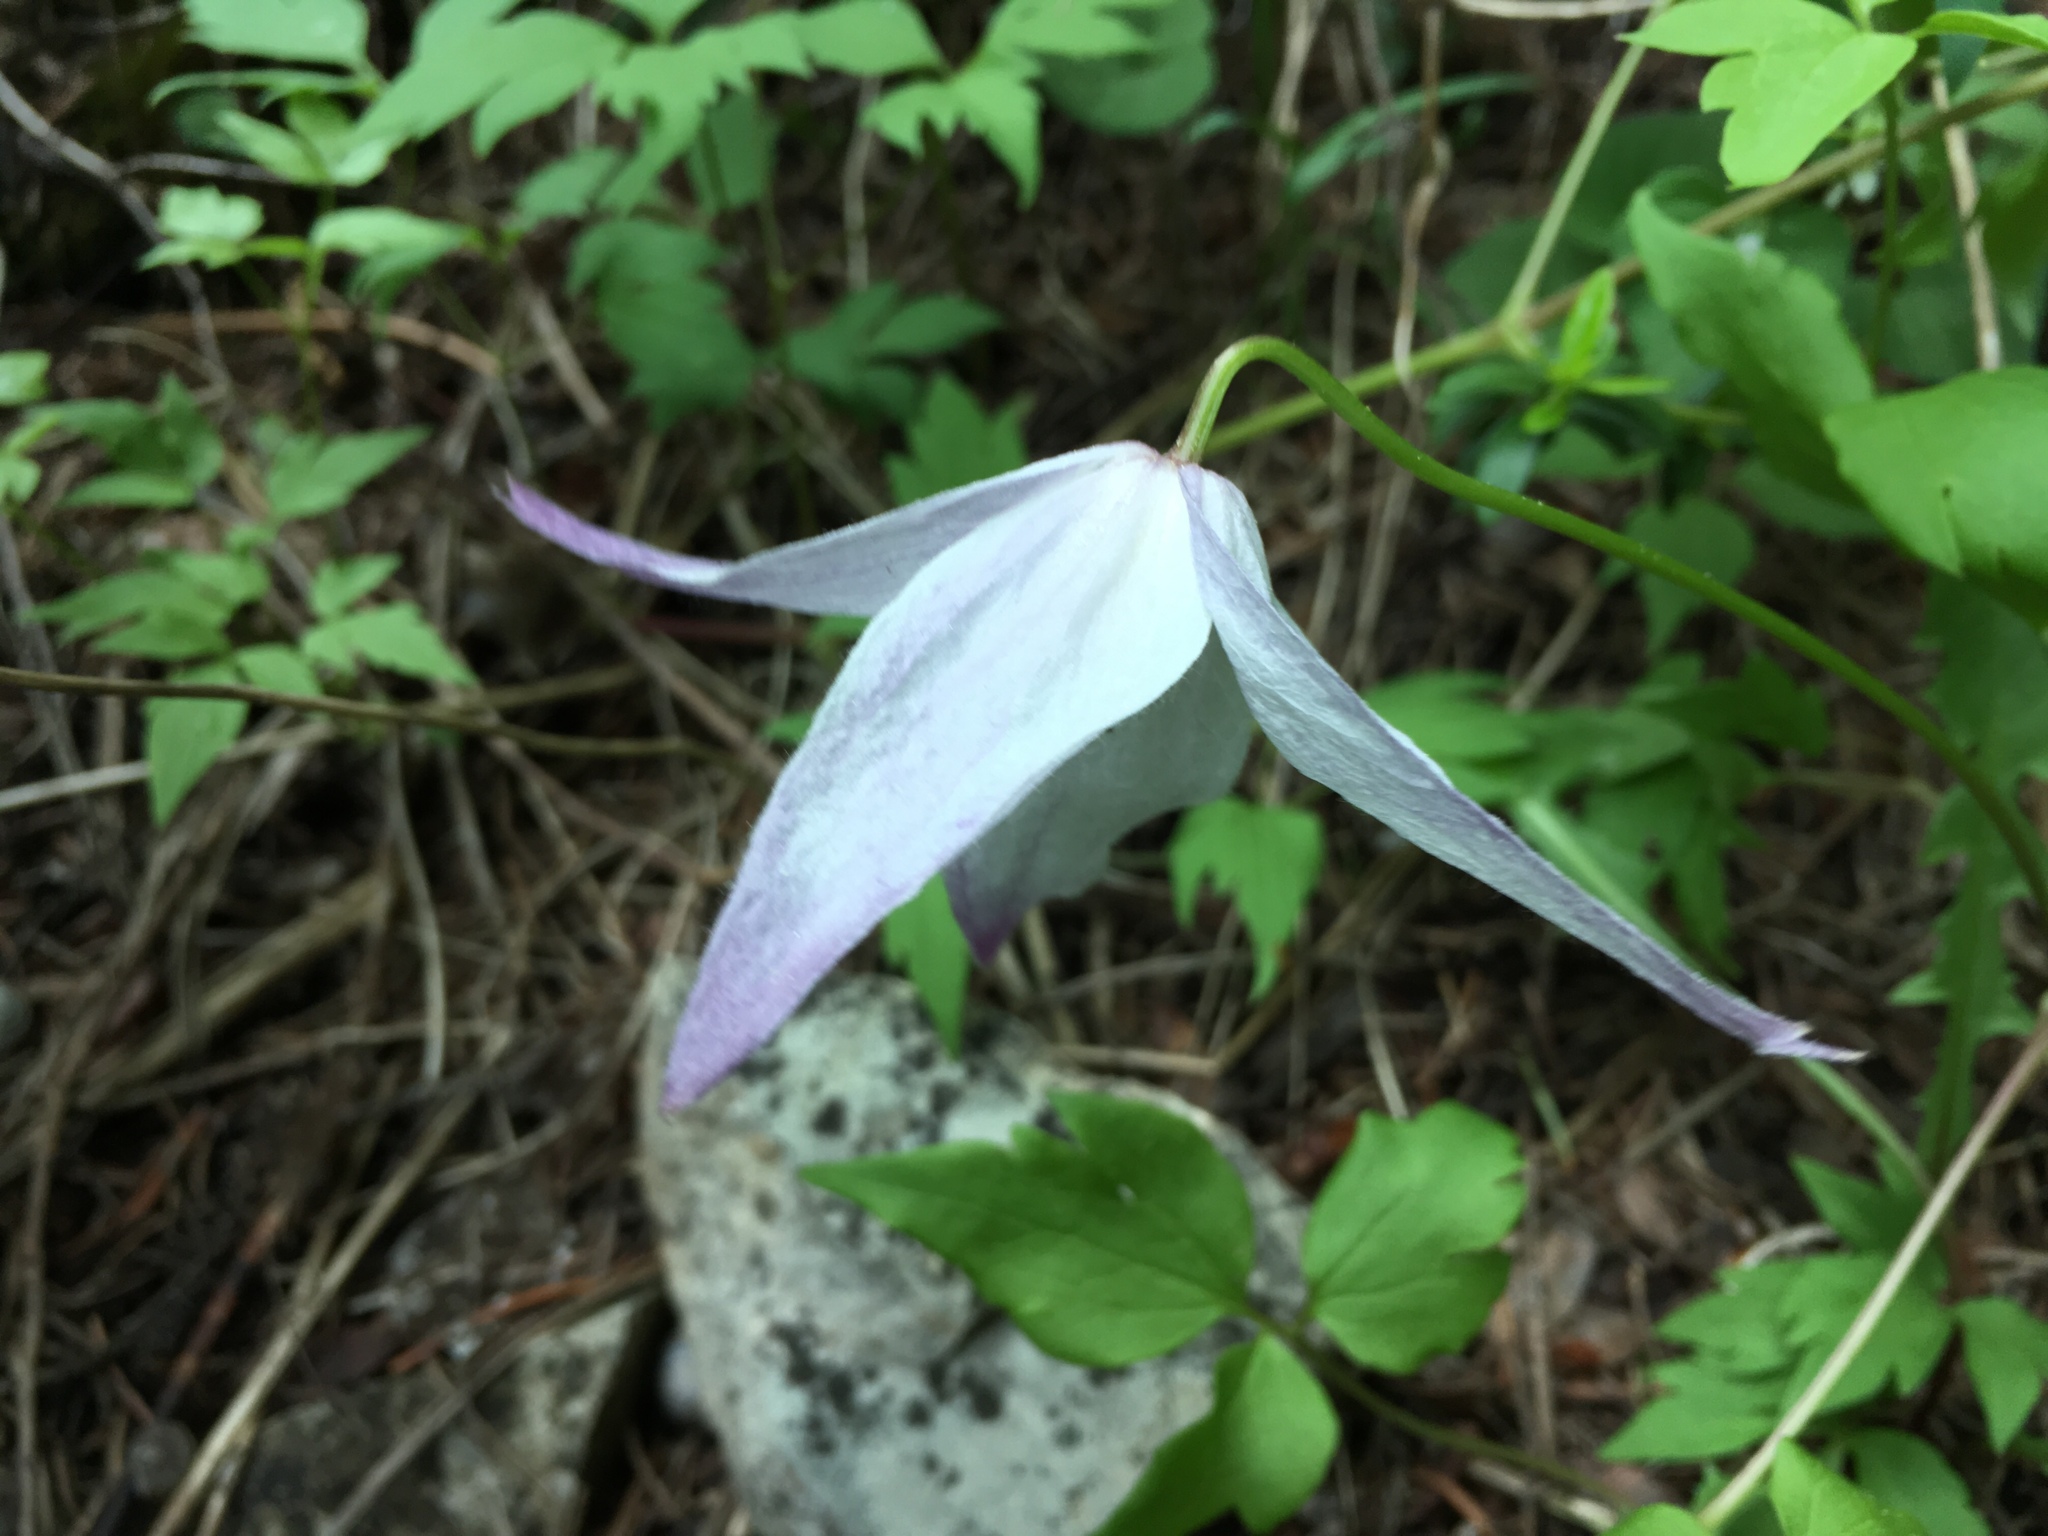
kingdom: Plantae
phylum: Tracheophyta
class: Magnoliopsida
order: Ranunculales
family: Ranunculaceae
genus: Clematis
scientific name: Clematis occidentalis
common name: Purple clematis
